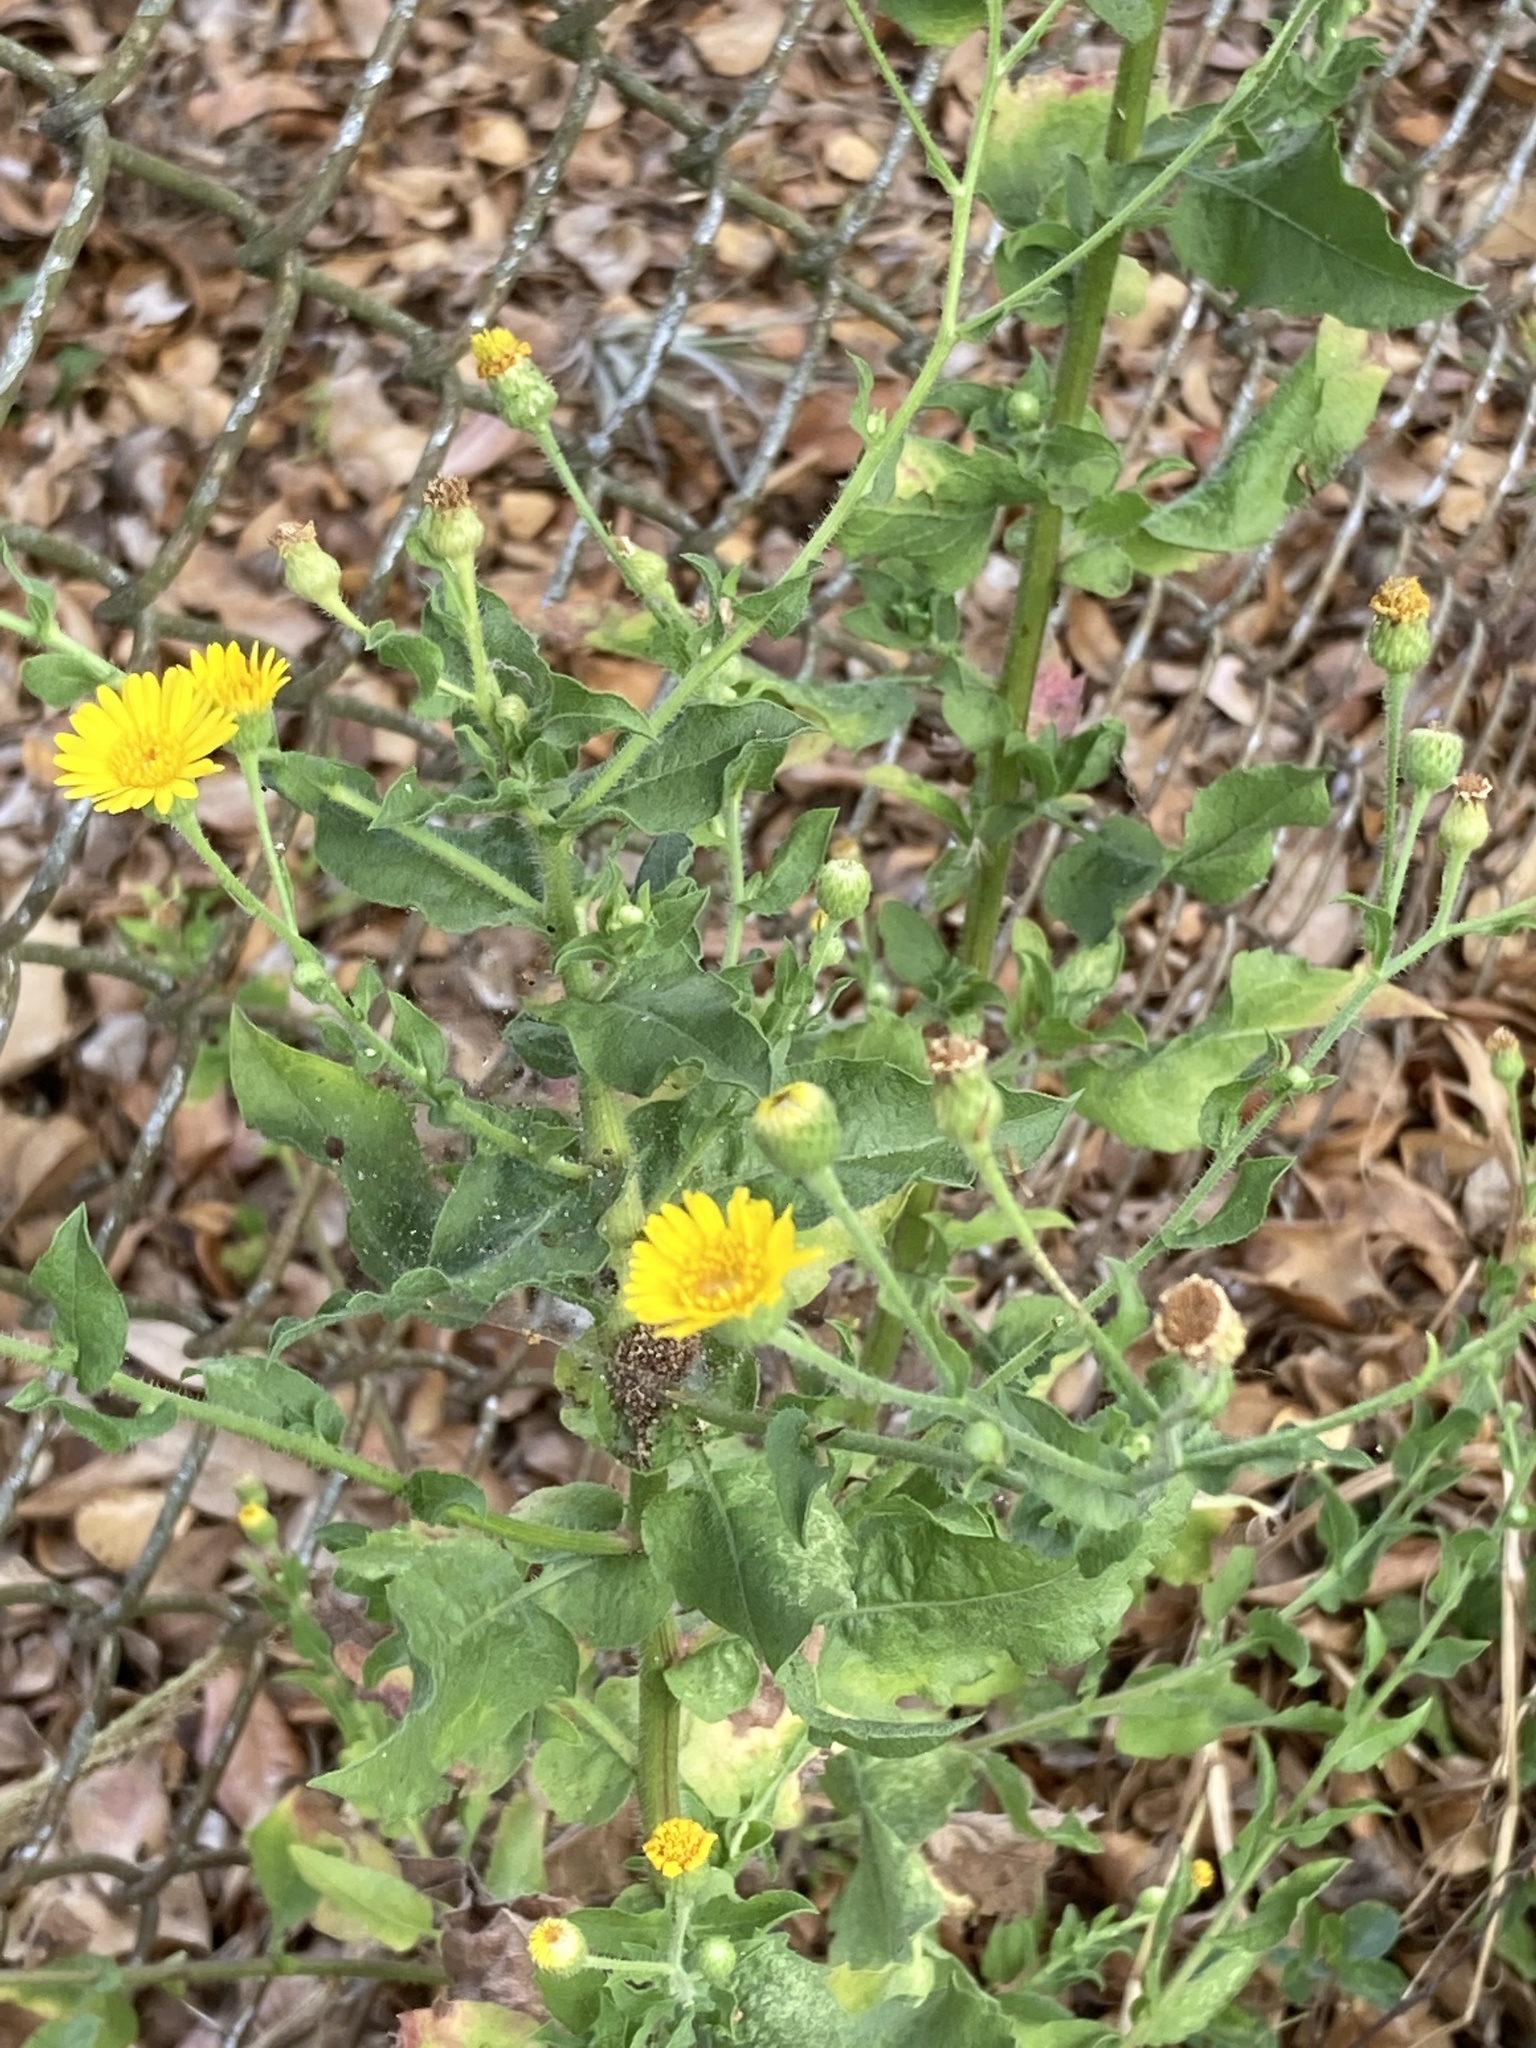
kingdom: Plantae
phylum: Tracheophyta
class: Magnoliopsida
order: Asterales
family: Asteraceae
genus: Heterotheca
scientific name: Heterotheca subaxillaris
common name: Camphorweed
